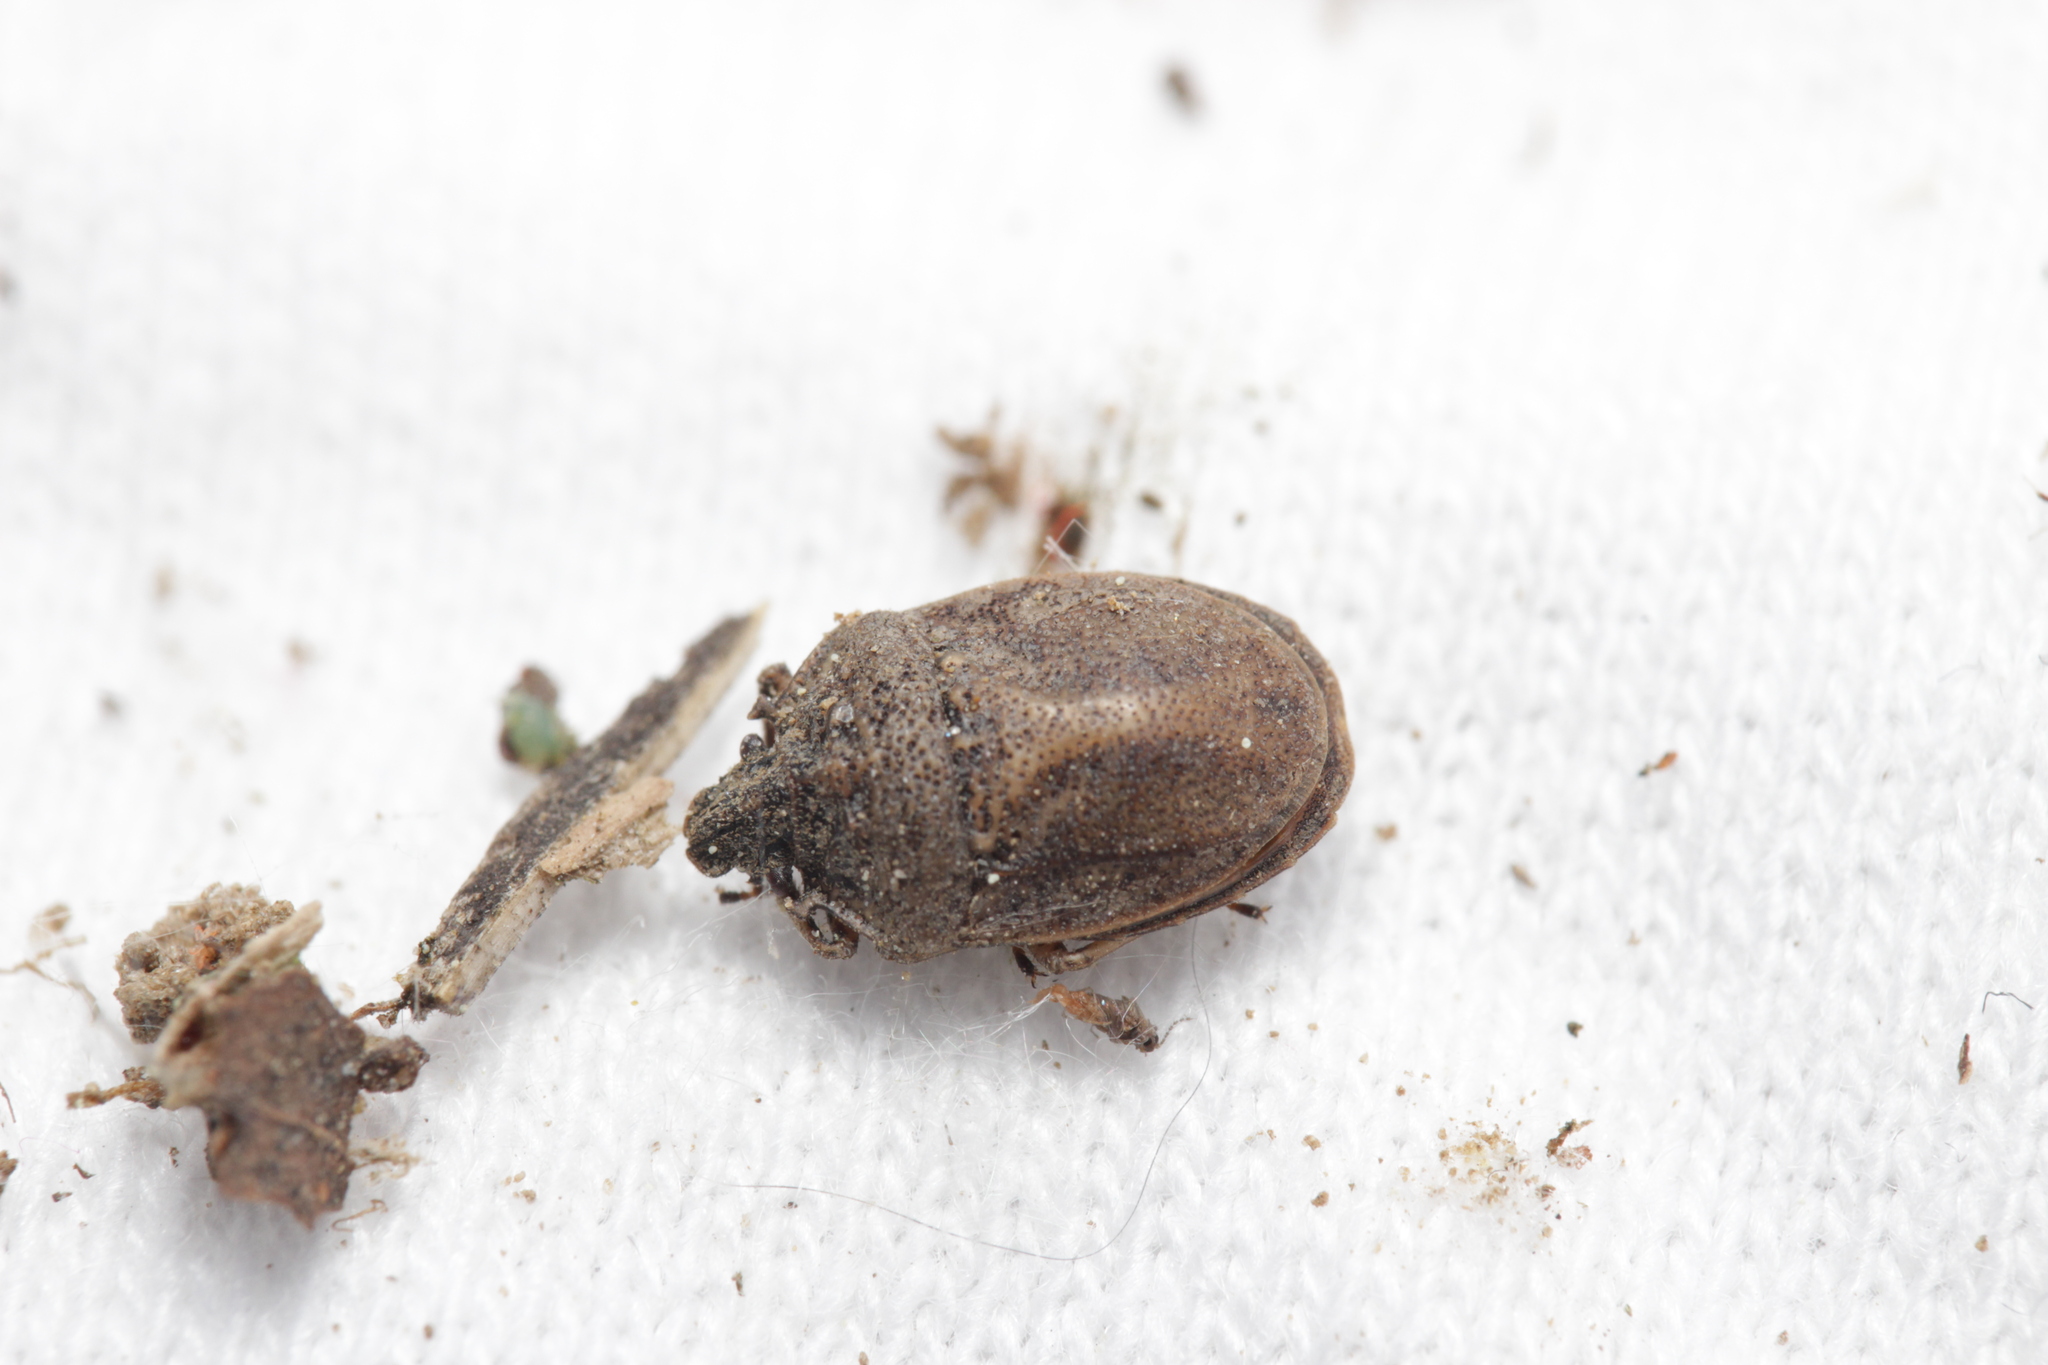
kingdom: Animalia
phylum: Arthropoda
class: Insecta
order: Hemiptera
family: Pentatomidae
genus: Podops
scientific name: Podops inunctus
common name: Turtle bug
